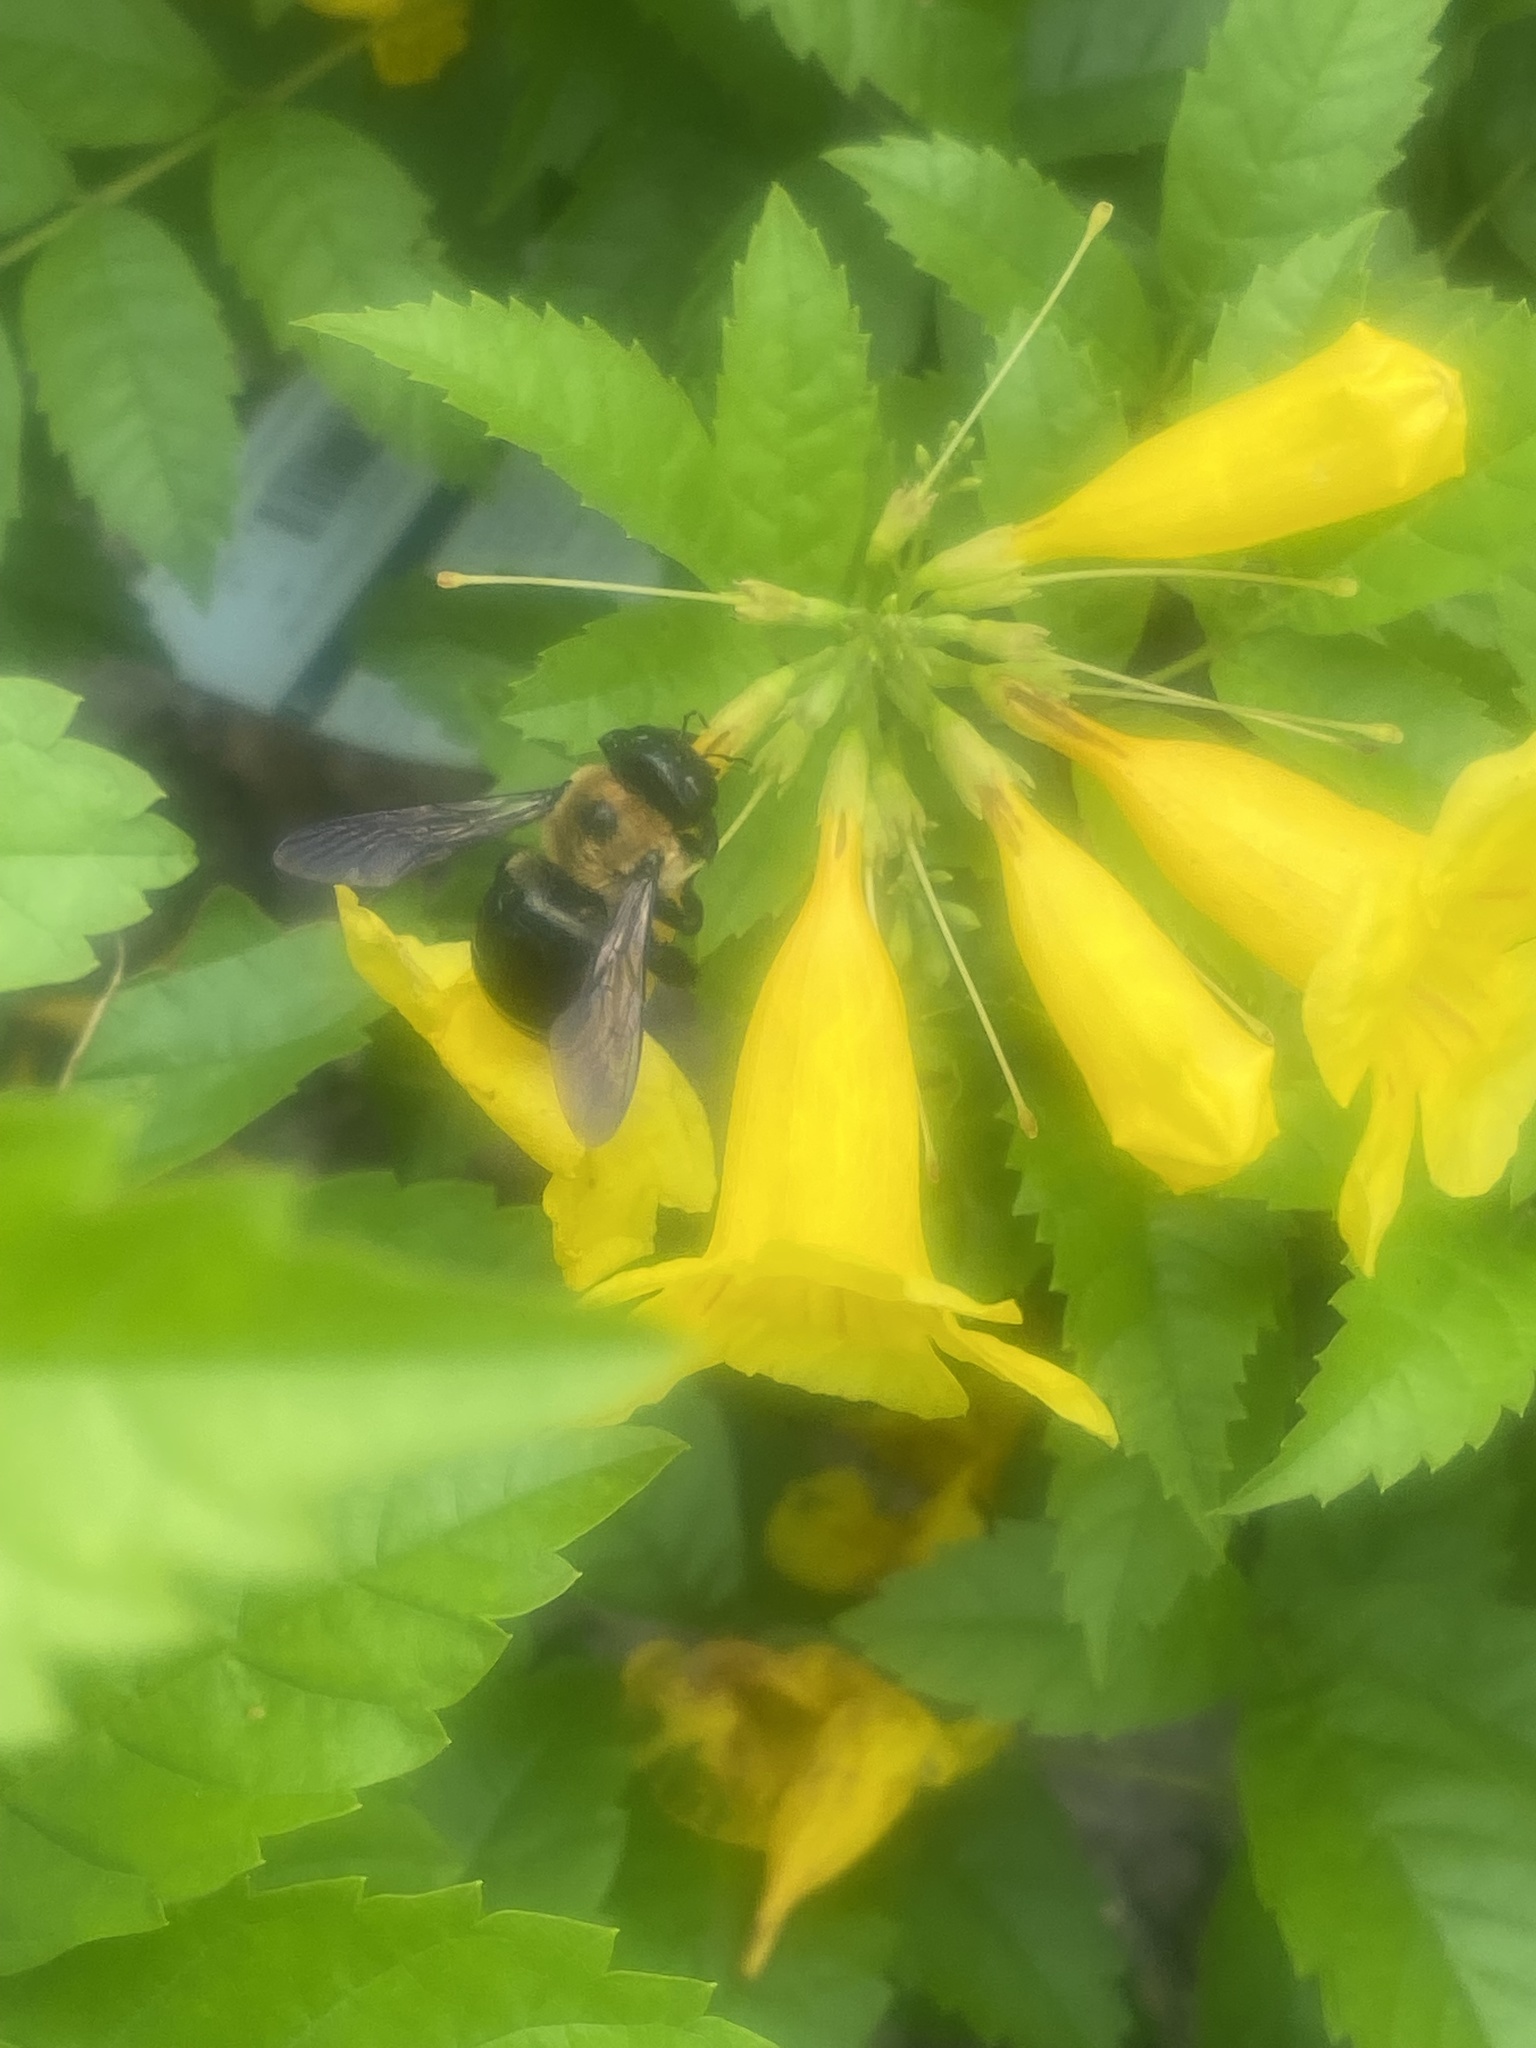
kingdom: Animalia
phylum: Arthropoda
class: Insecta
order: Hymenoptera
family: Apidae
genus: Xylocopa
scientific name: Xylocopa virginica
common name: Carpenter bee
